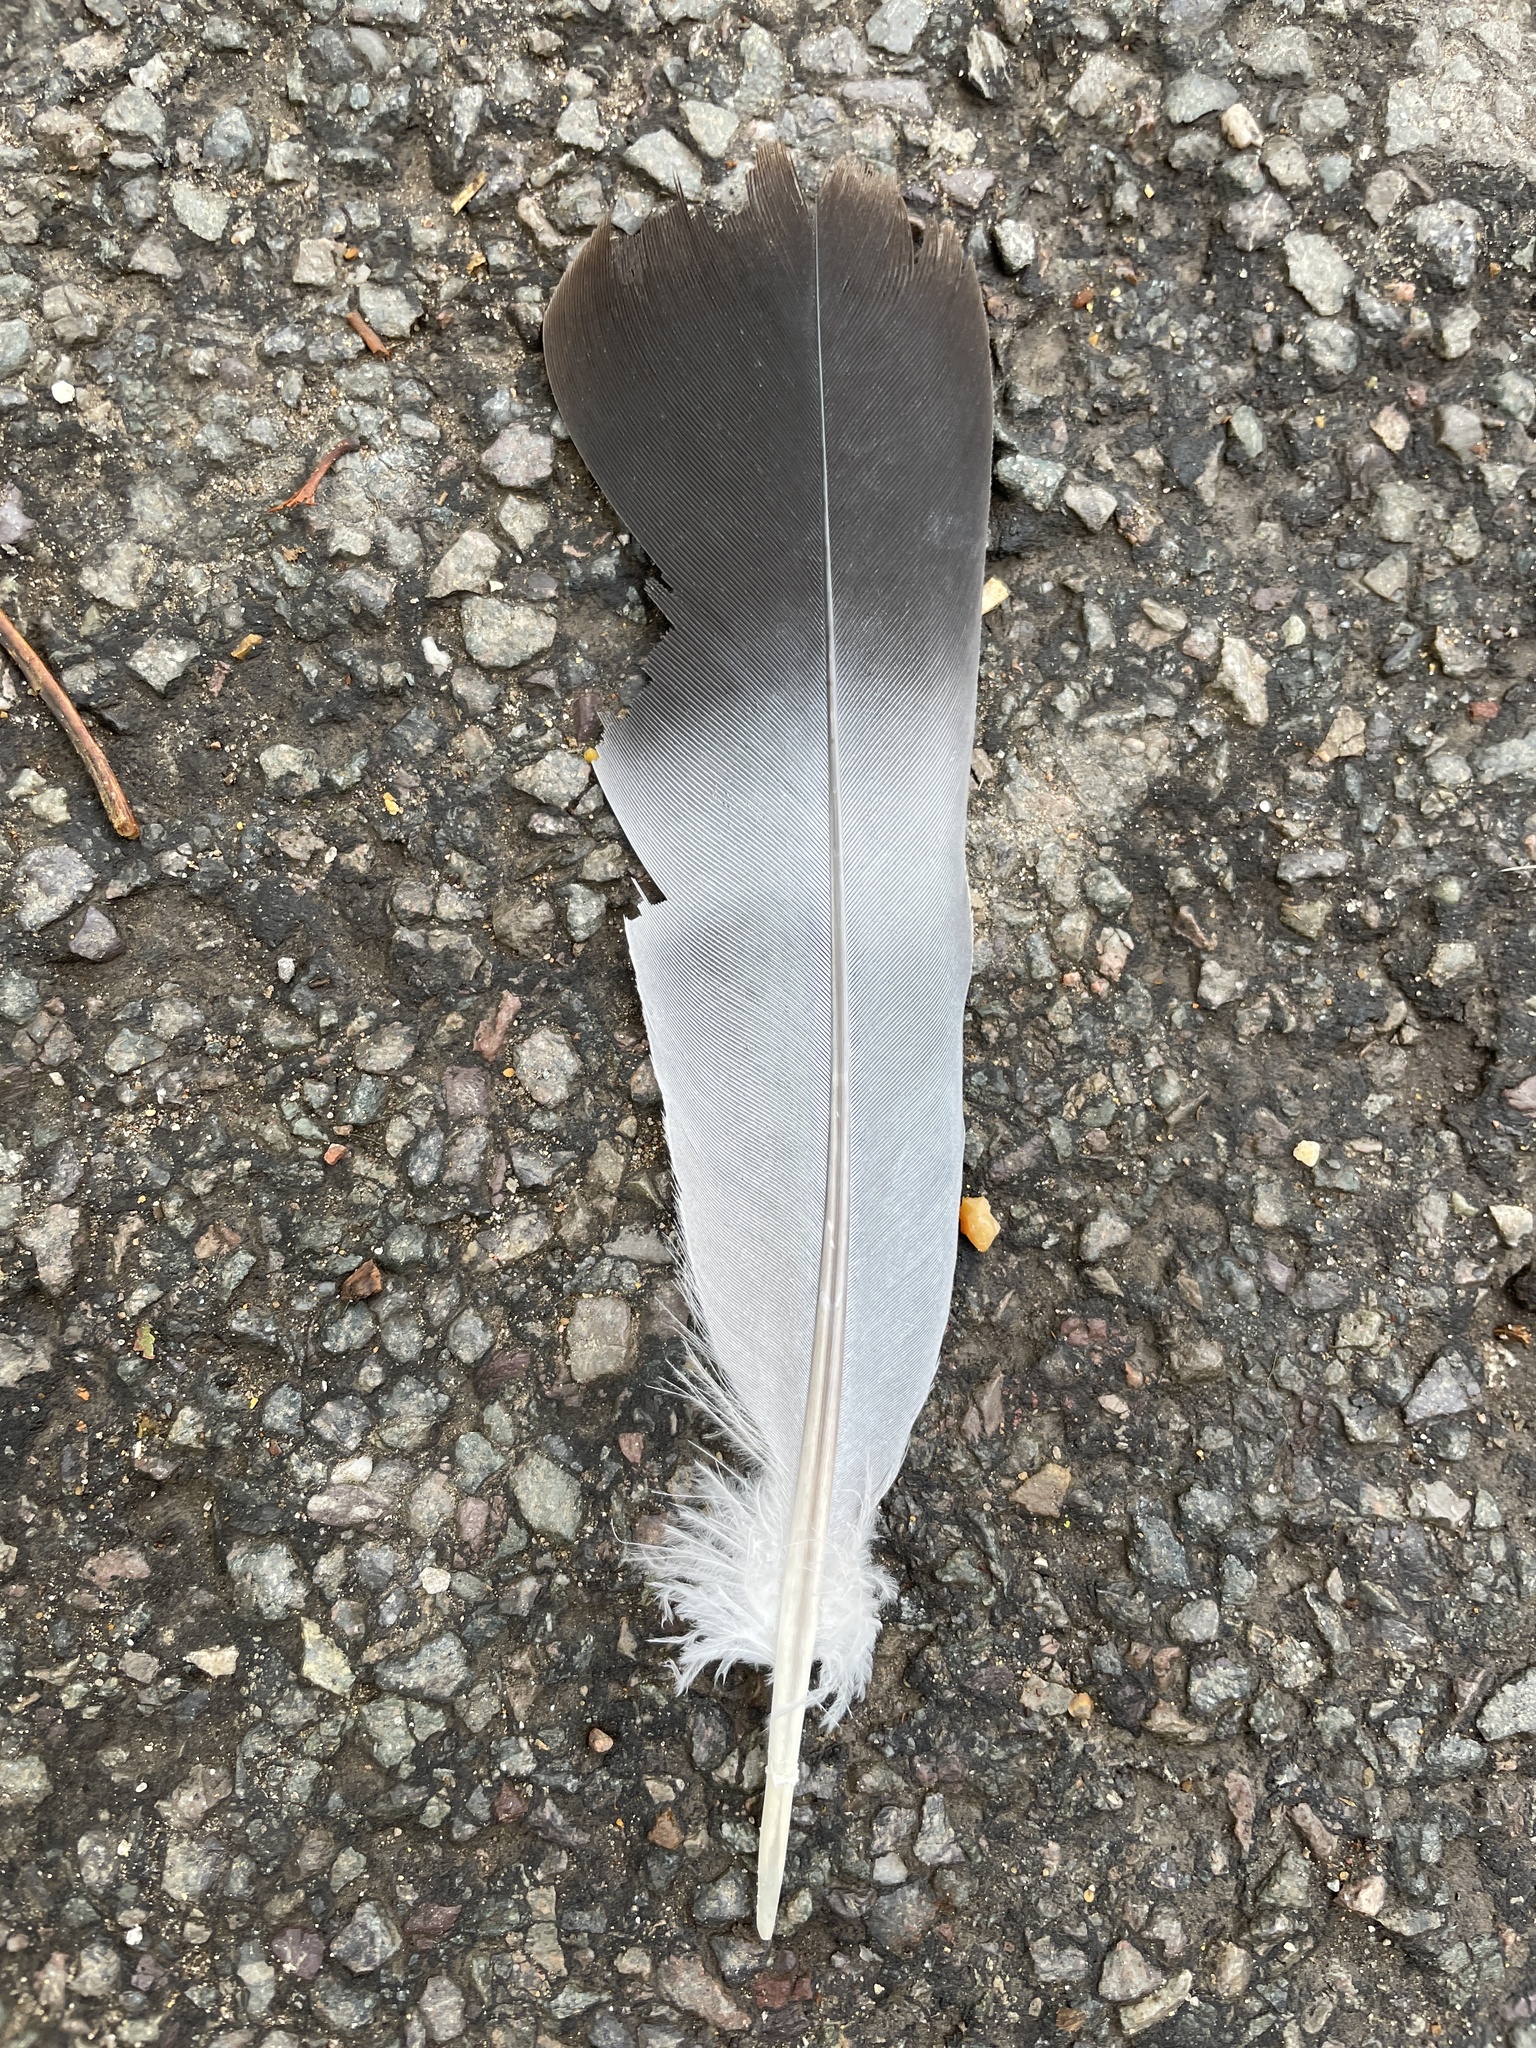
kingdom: Animalia
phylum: Chordata
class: Aves
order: Columbiformes
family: Columbidae
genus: Columba
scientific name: Columba palumbus
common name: Common wood pigeon
